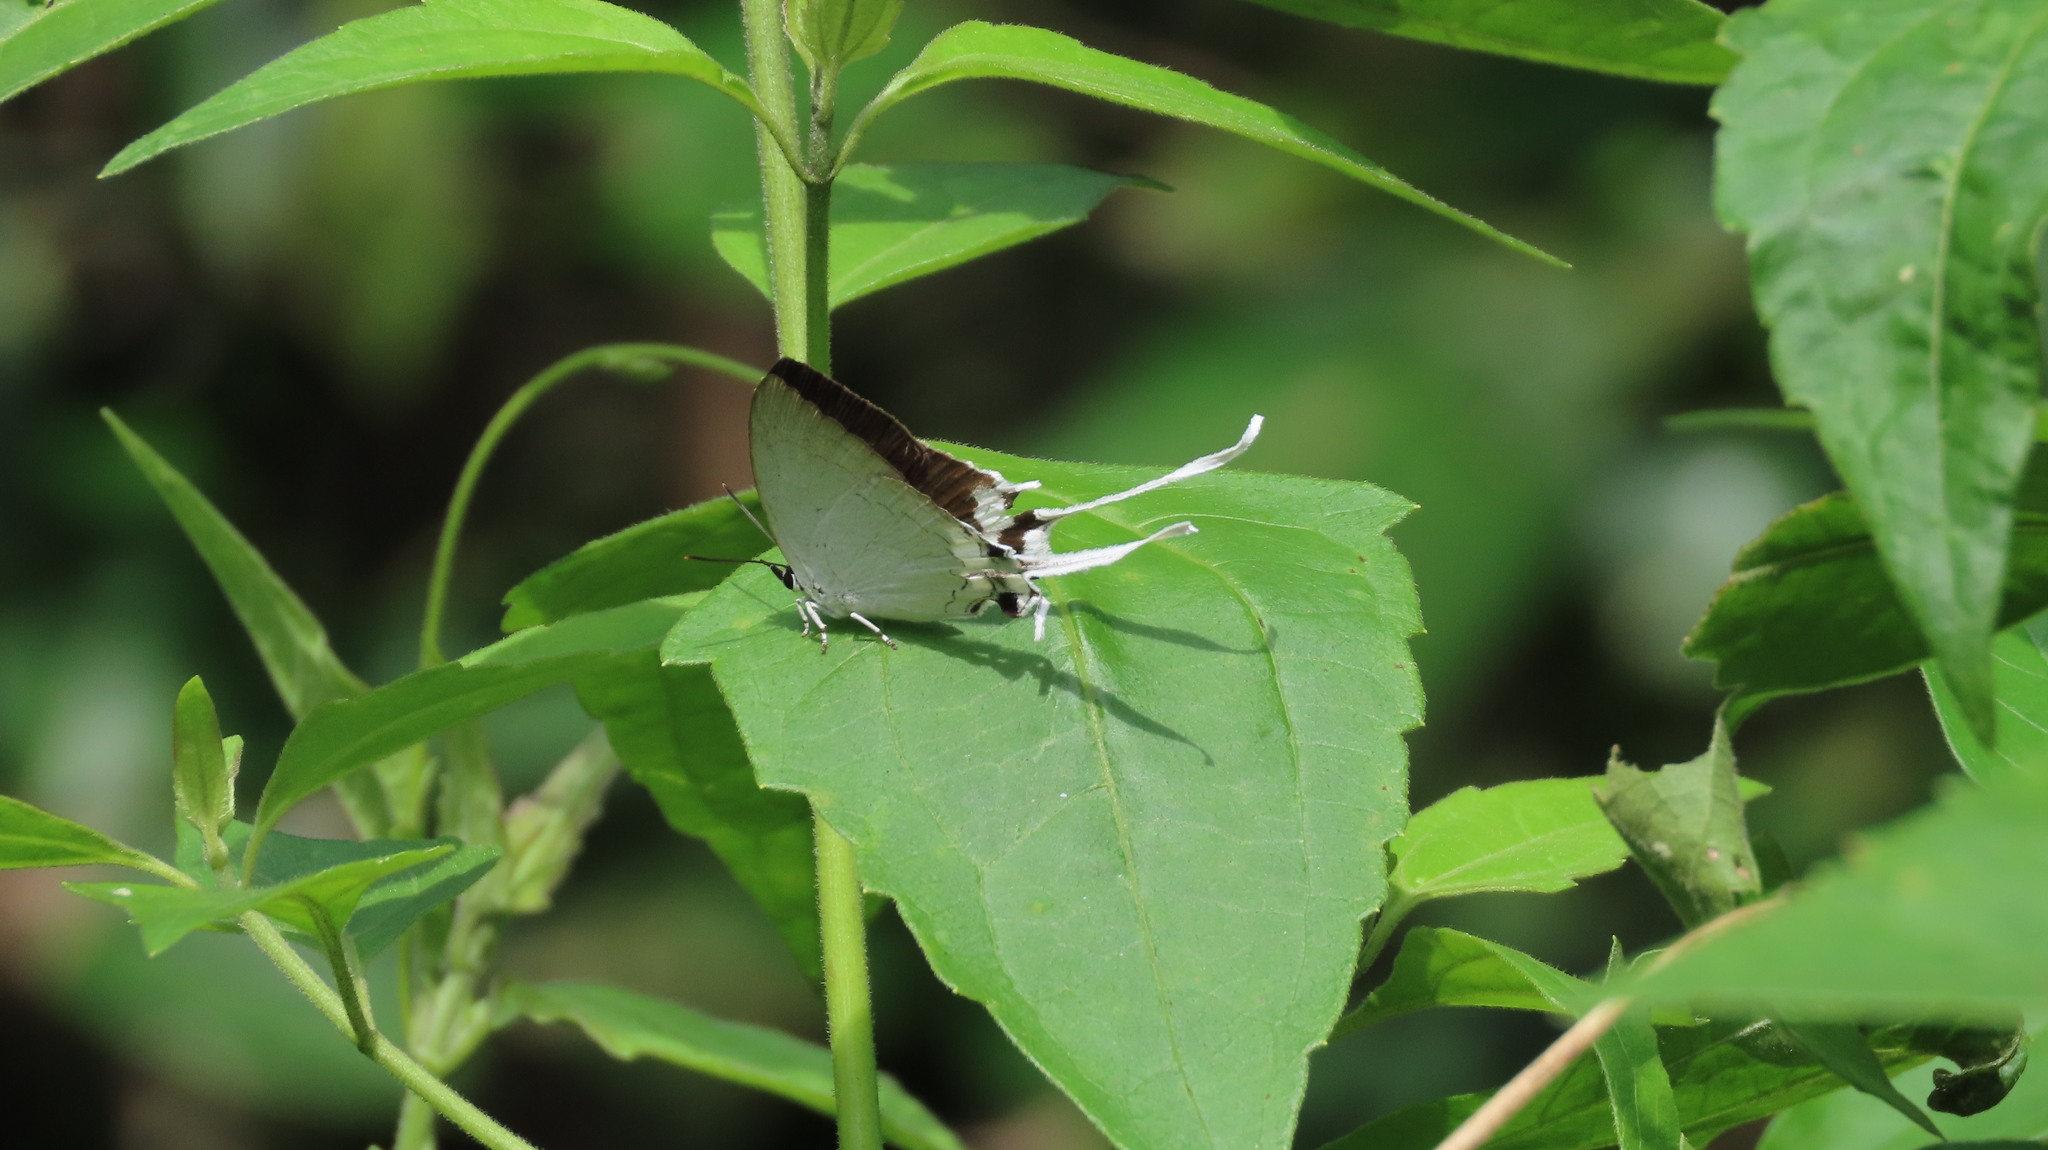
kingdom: Animalia
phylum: Arthropoda
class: Insecta
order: Lepidoptera
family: Lycaenidae
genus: Cheritra
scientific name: Cheritra freja
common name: Common imperial
